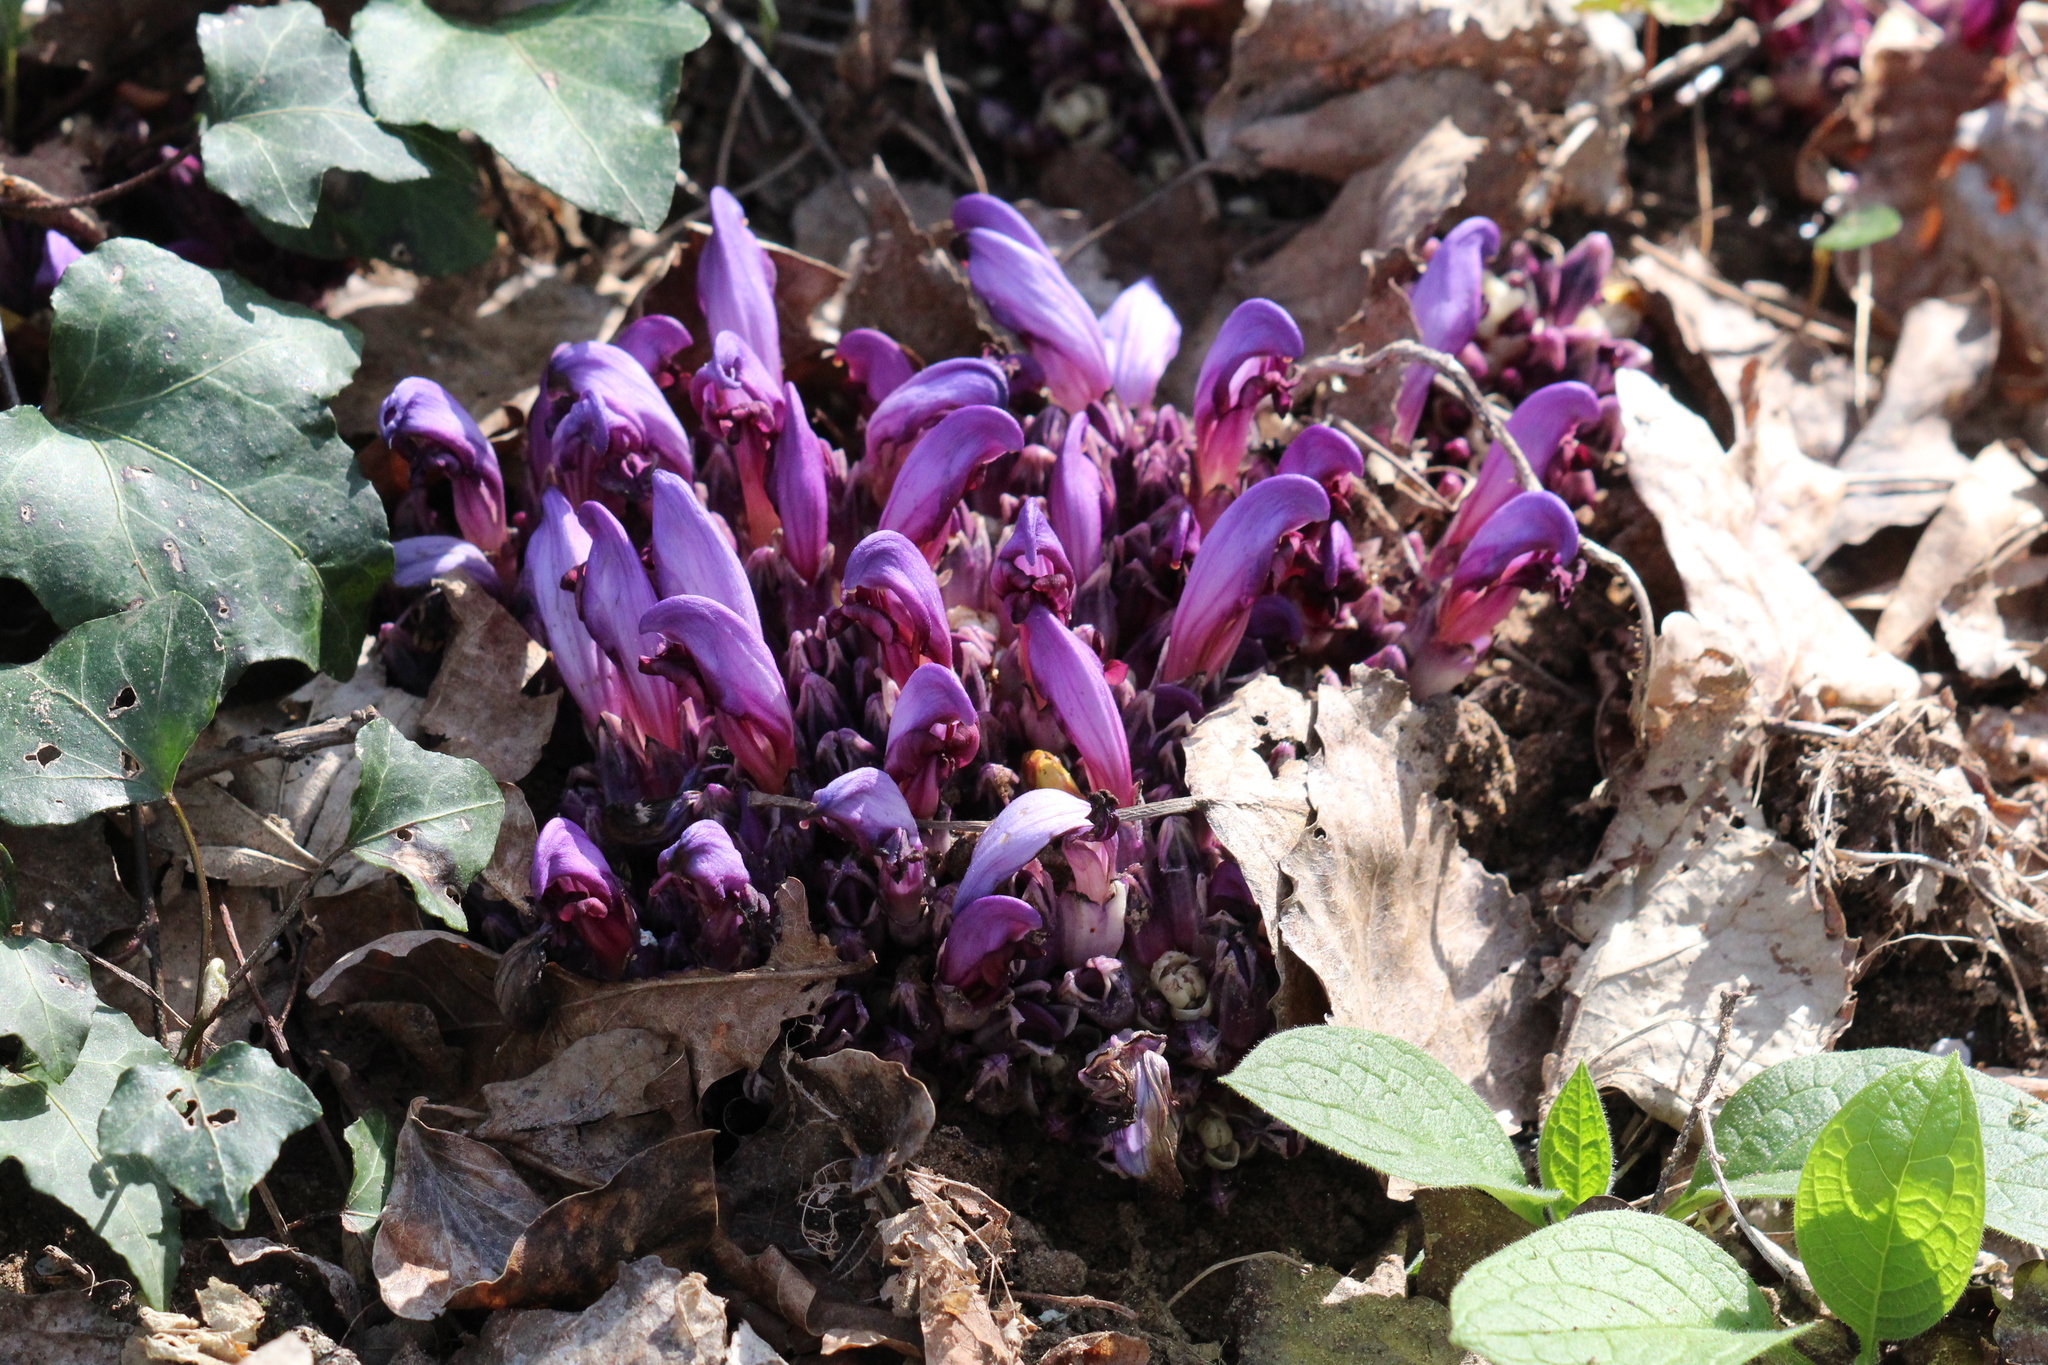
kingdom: Plantae
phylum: Tracheophyta
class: Magnoliopsida
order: Lamiales
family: Orobanchaceae
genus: Lathraea
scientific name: Lathraea clandestina
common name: Purple toothwort
